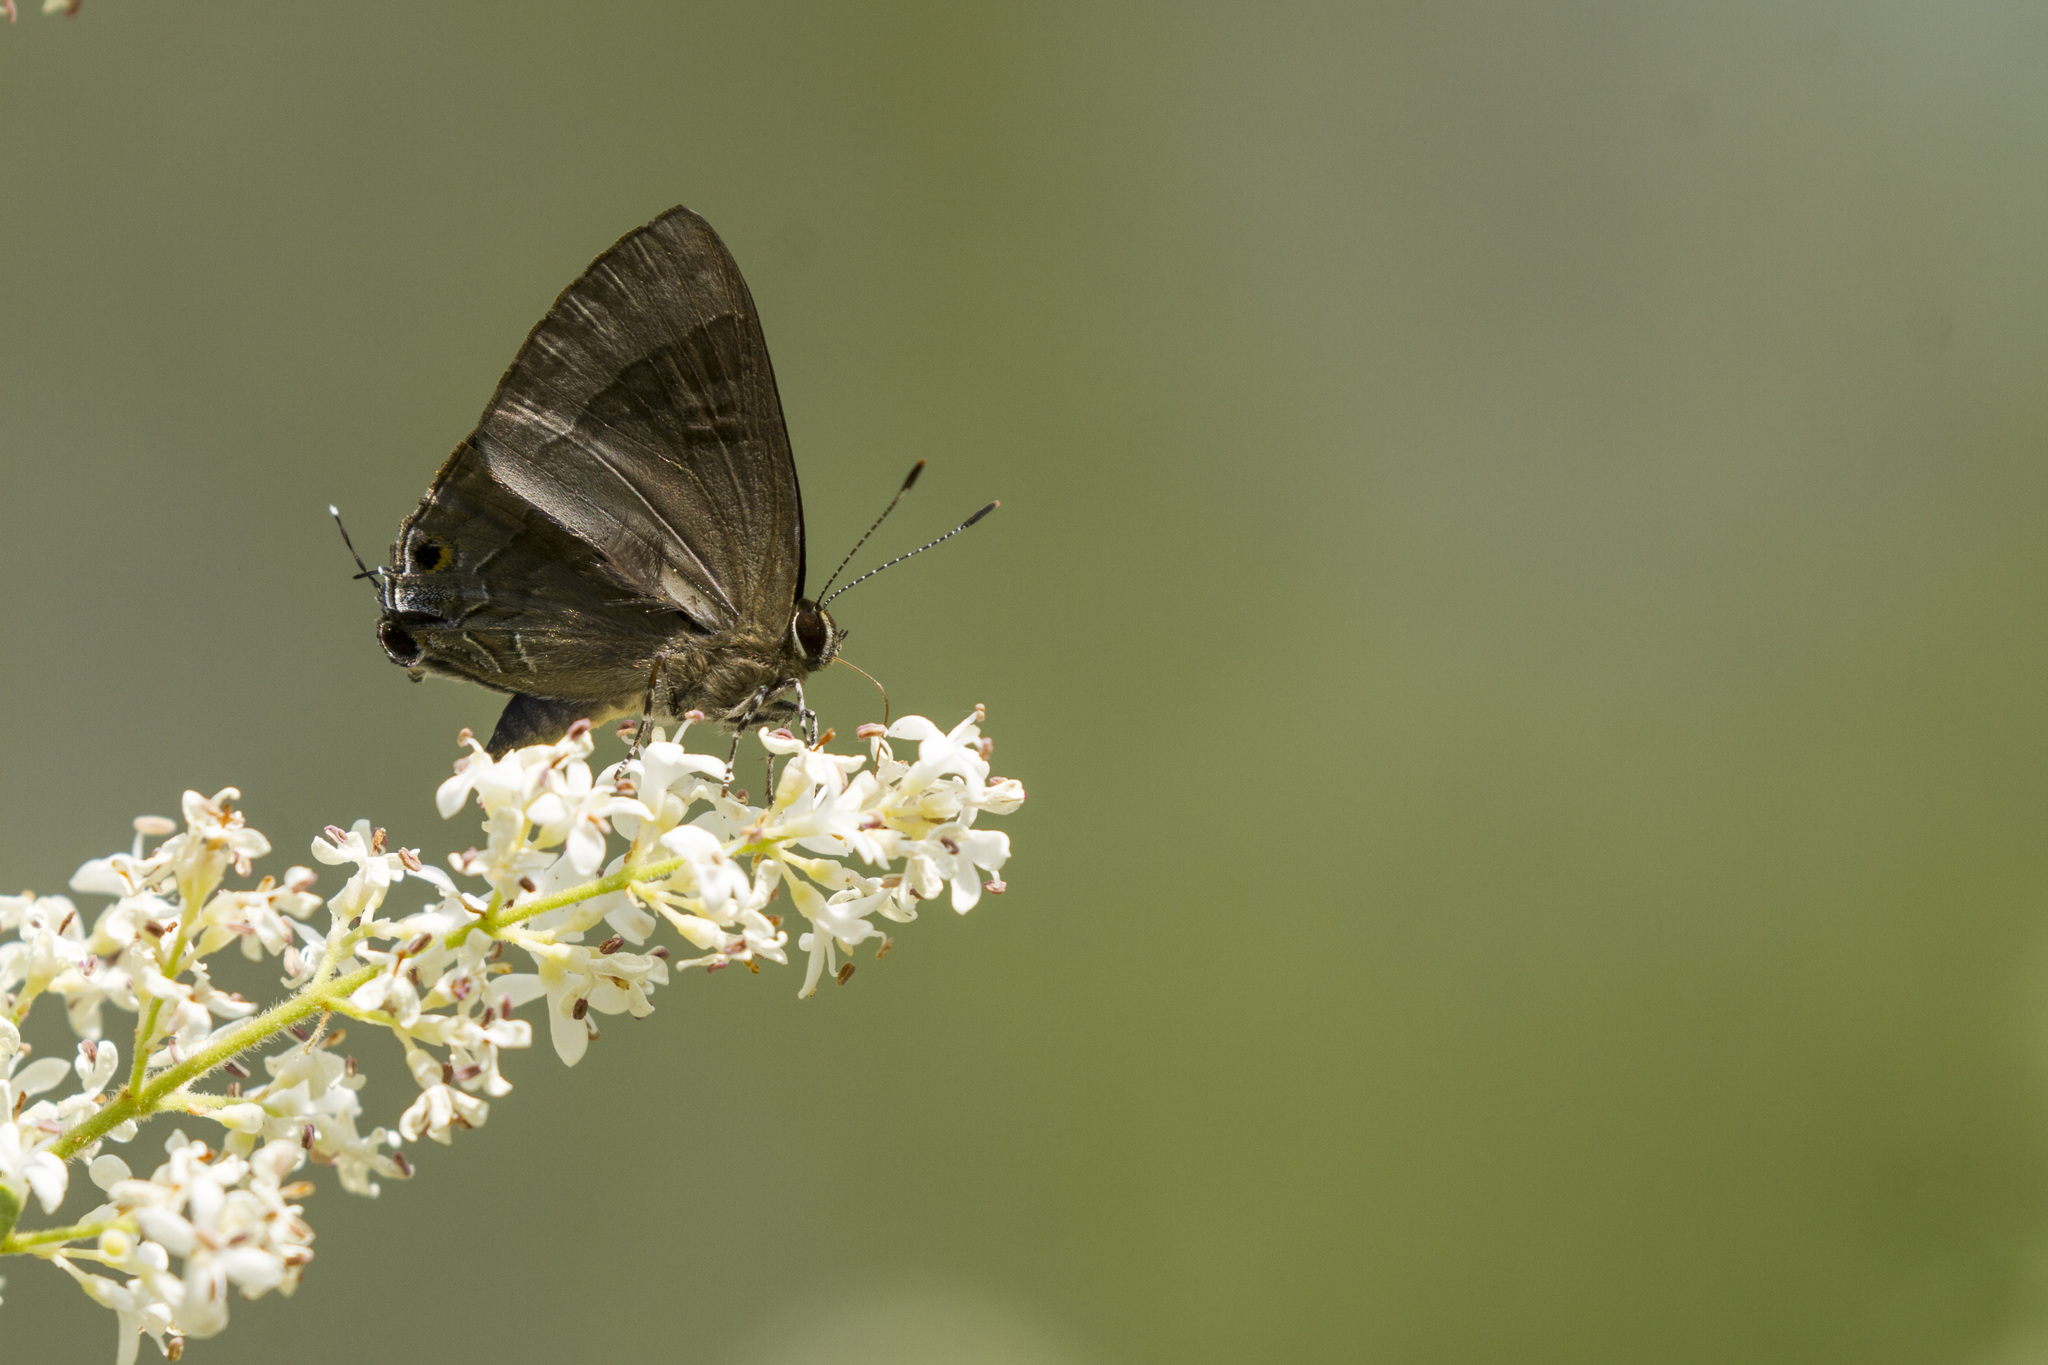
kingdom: Animalia
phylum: Arthropoda
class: Insecta
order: Lepidoptera
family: Lycaenidae
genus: Rapala
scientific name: Rapala varuna
